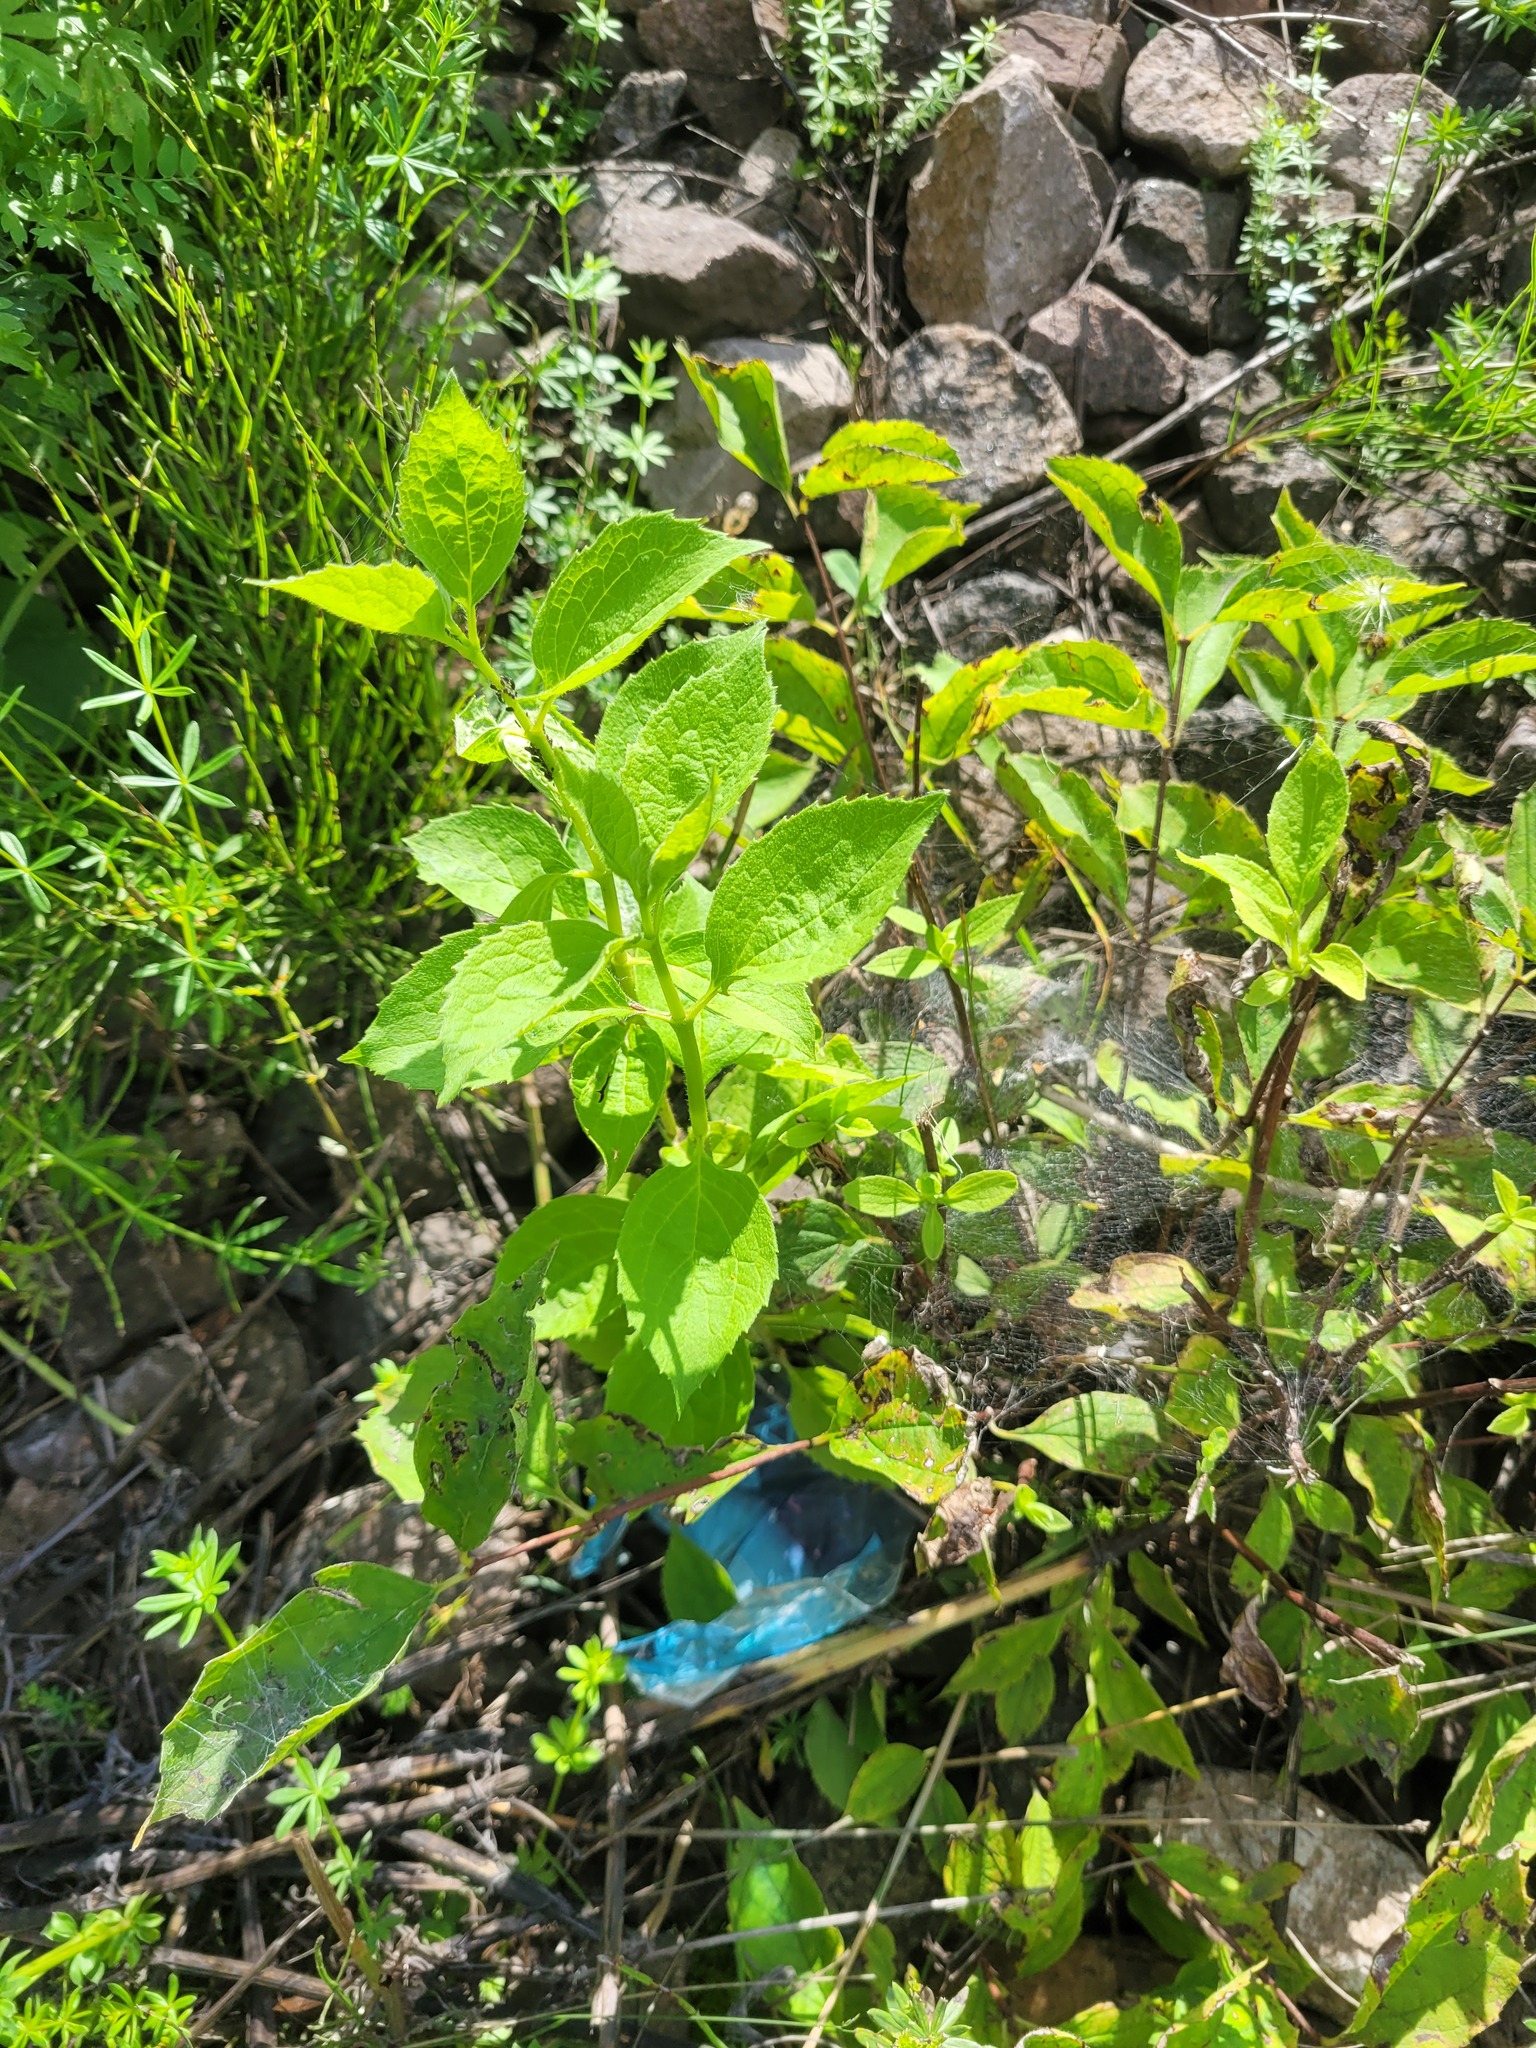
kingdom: Plantae
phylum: Tracheophyta
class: Magnoliopsida
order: Cornales
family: Hydrangeaceae
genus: Philadelphus
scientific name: Philadelphus coronarius
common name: Mock orange
